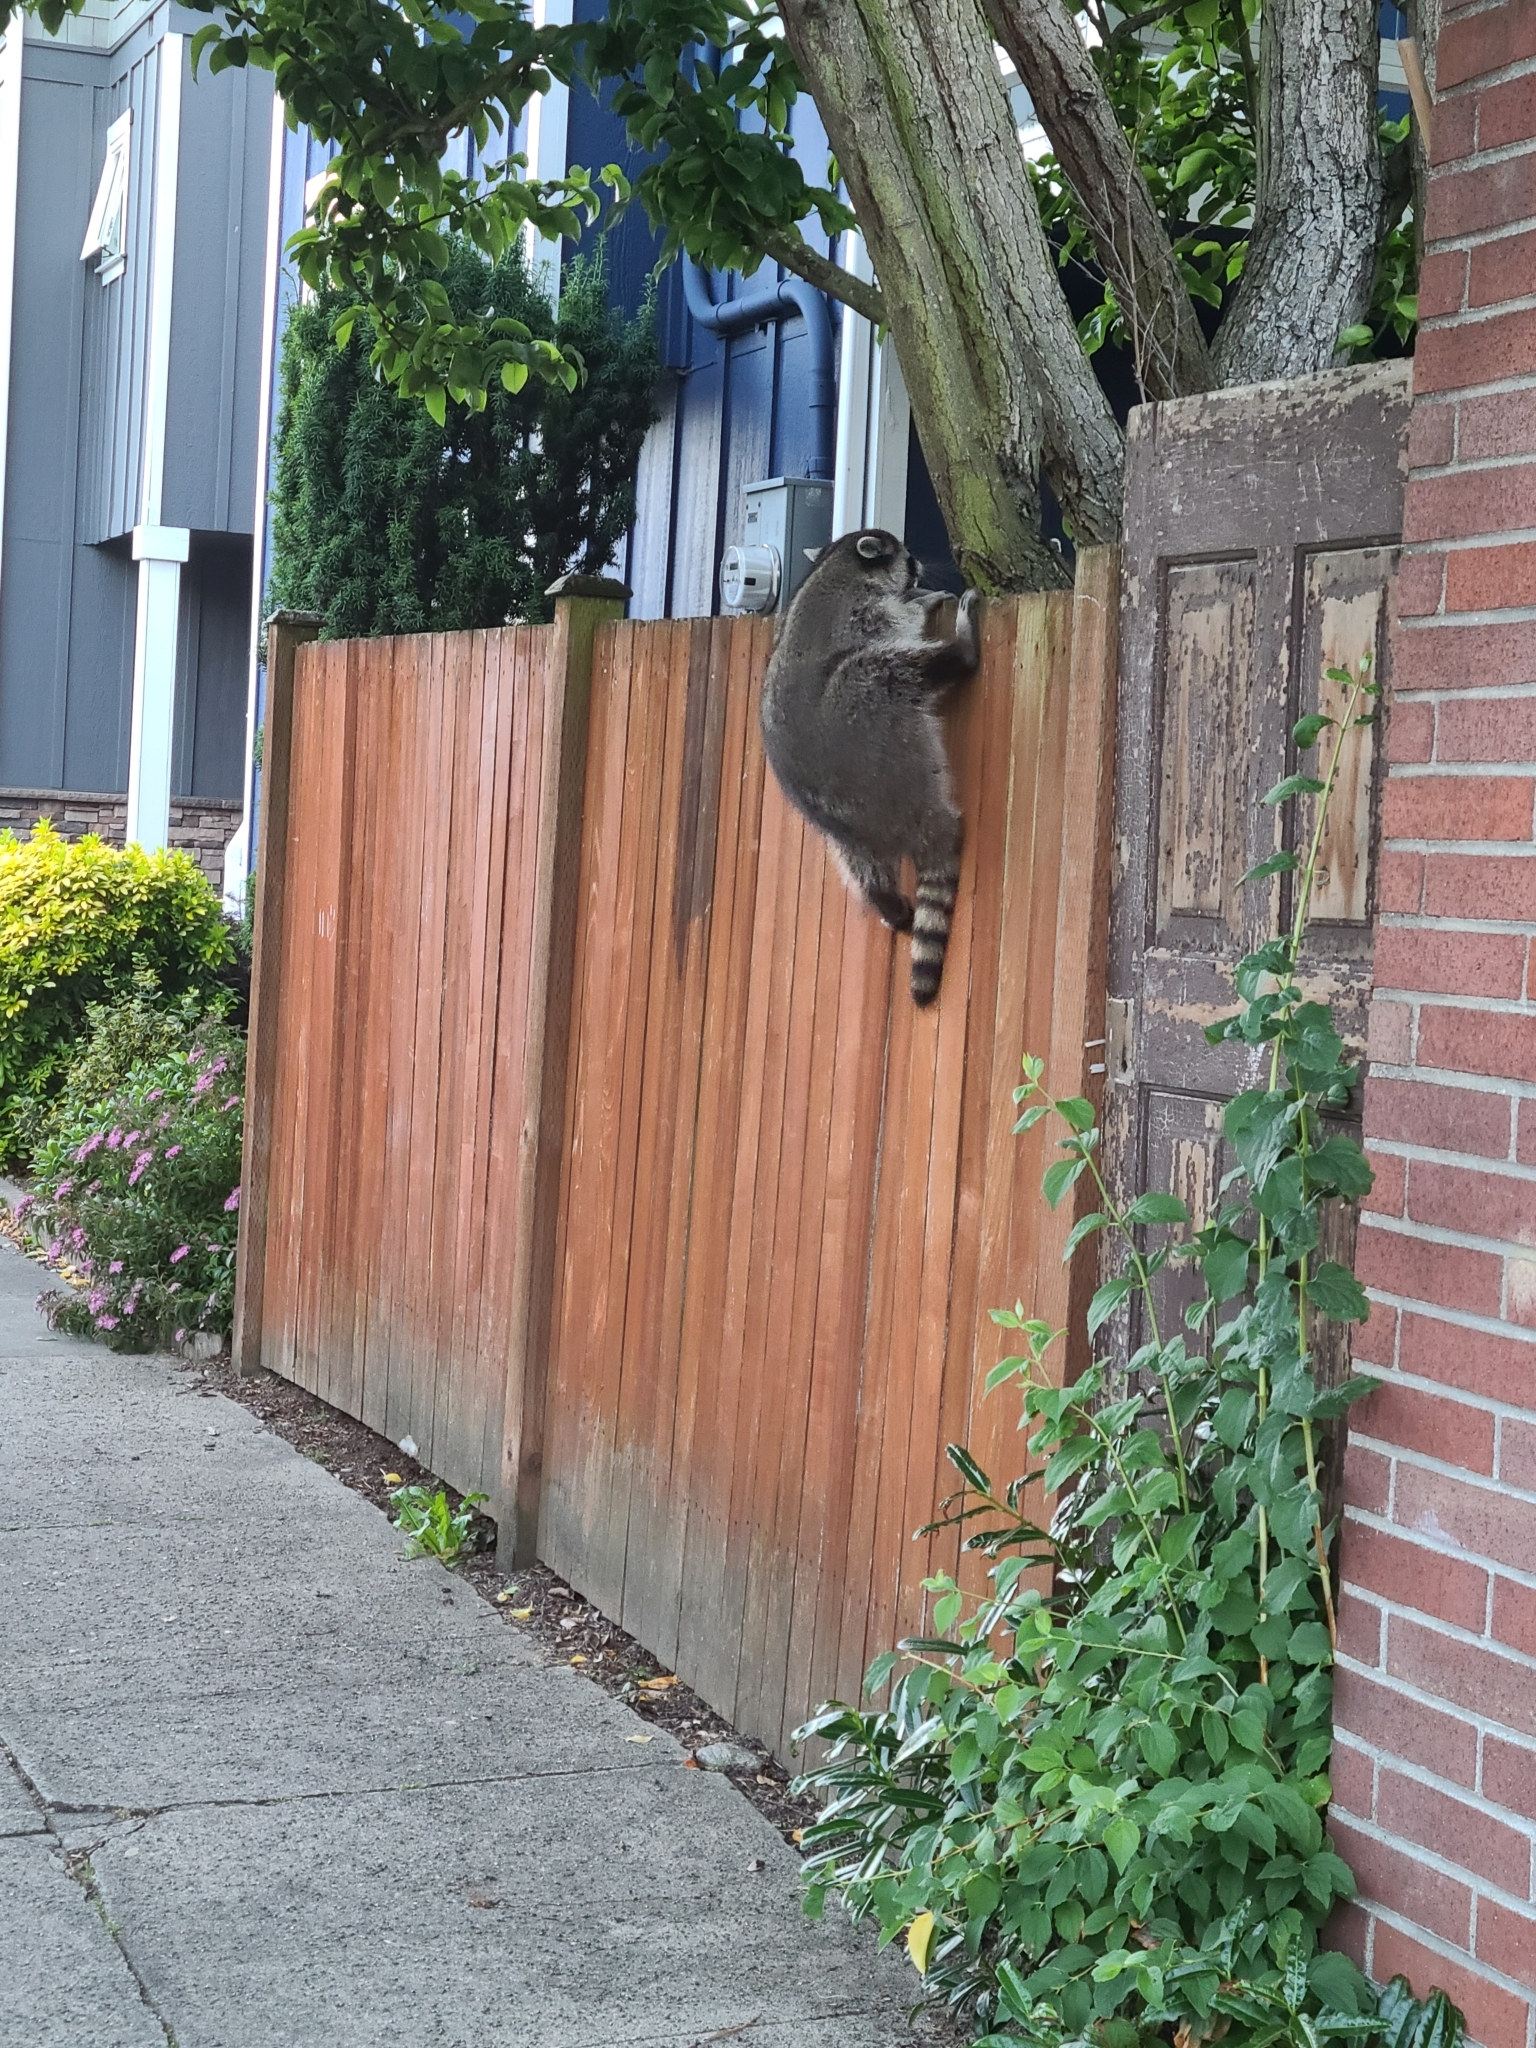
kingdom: Animalia
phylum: Chordata
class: Mammalia
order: Carnivora
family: Procyonidae
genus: Procyon
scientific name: Procyon lotor
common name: Raccoon
